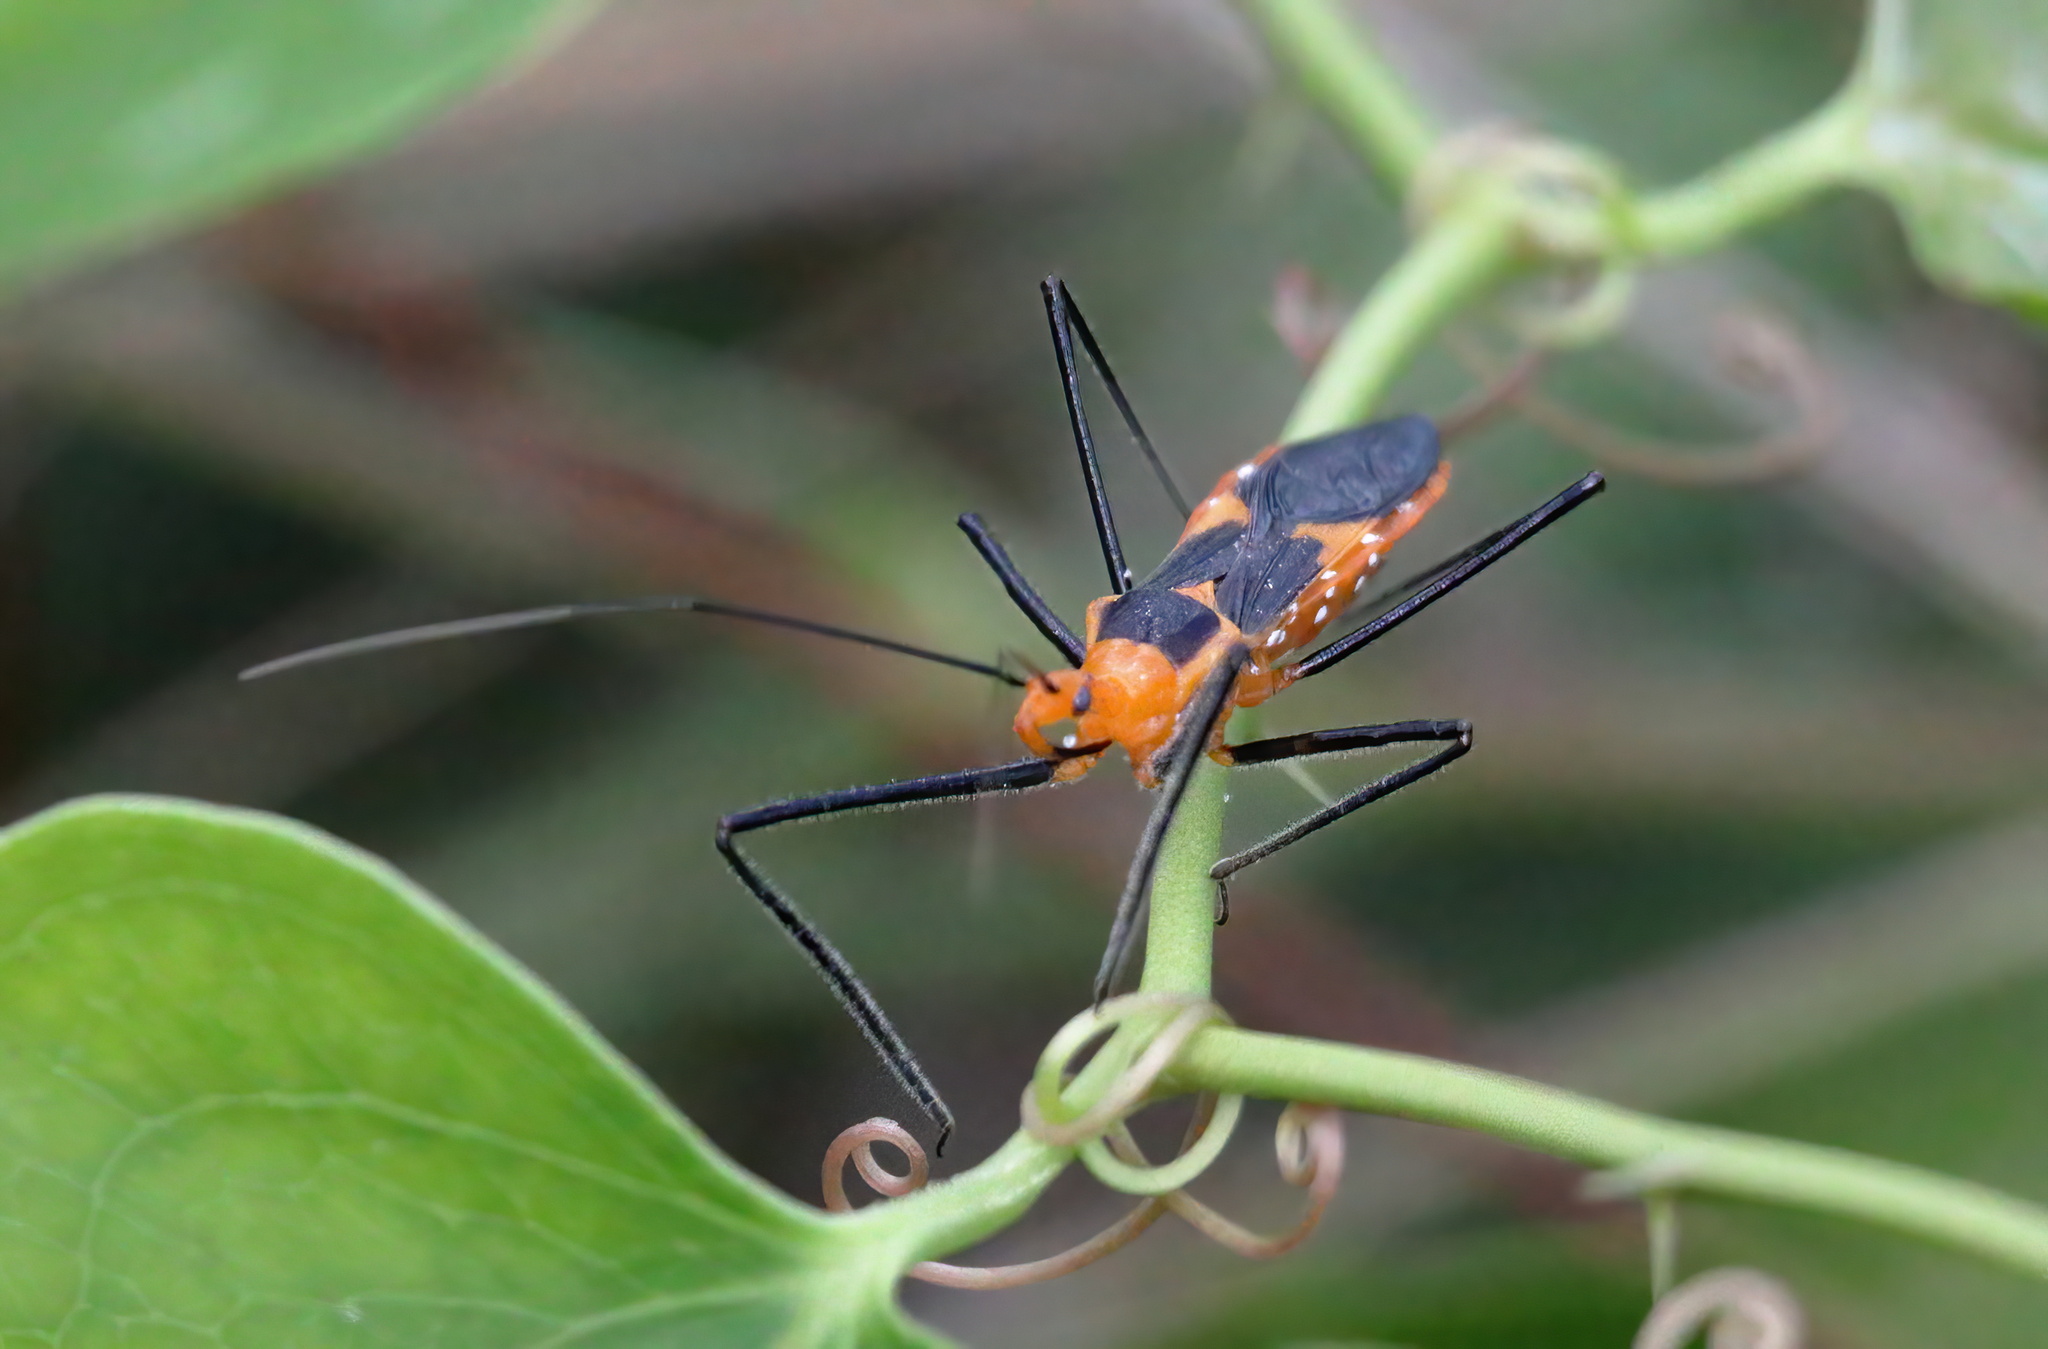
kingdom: Animalia
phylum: Arthropoda
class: Insecta
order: Hemiptera
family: Reduviidae
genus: Zelus
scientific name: Zelus longipes
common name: Milkweed assassin bug
